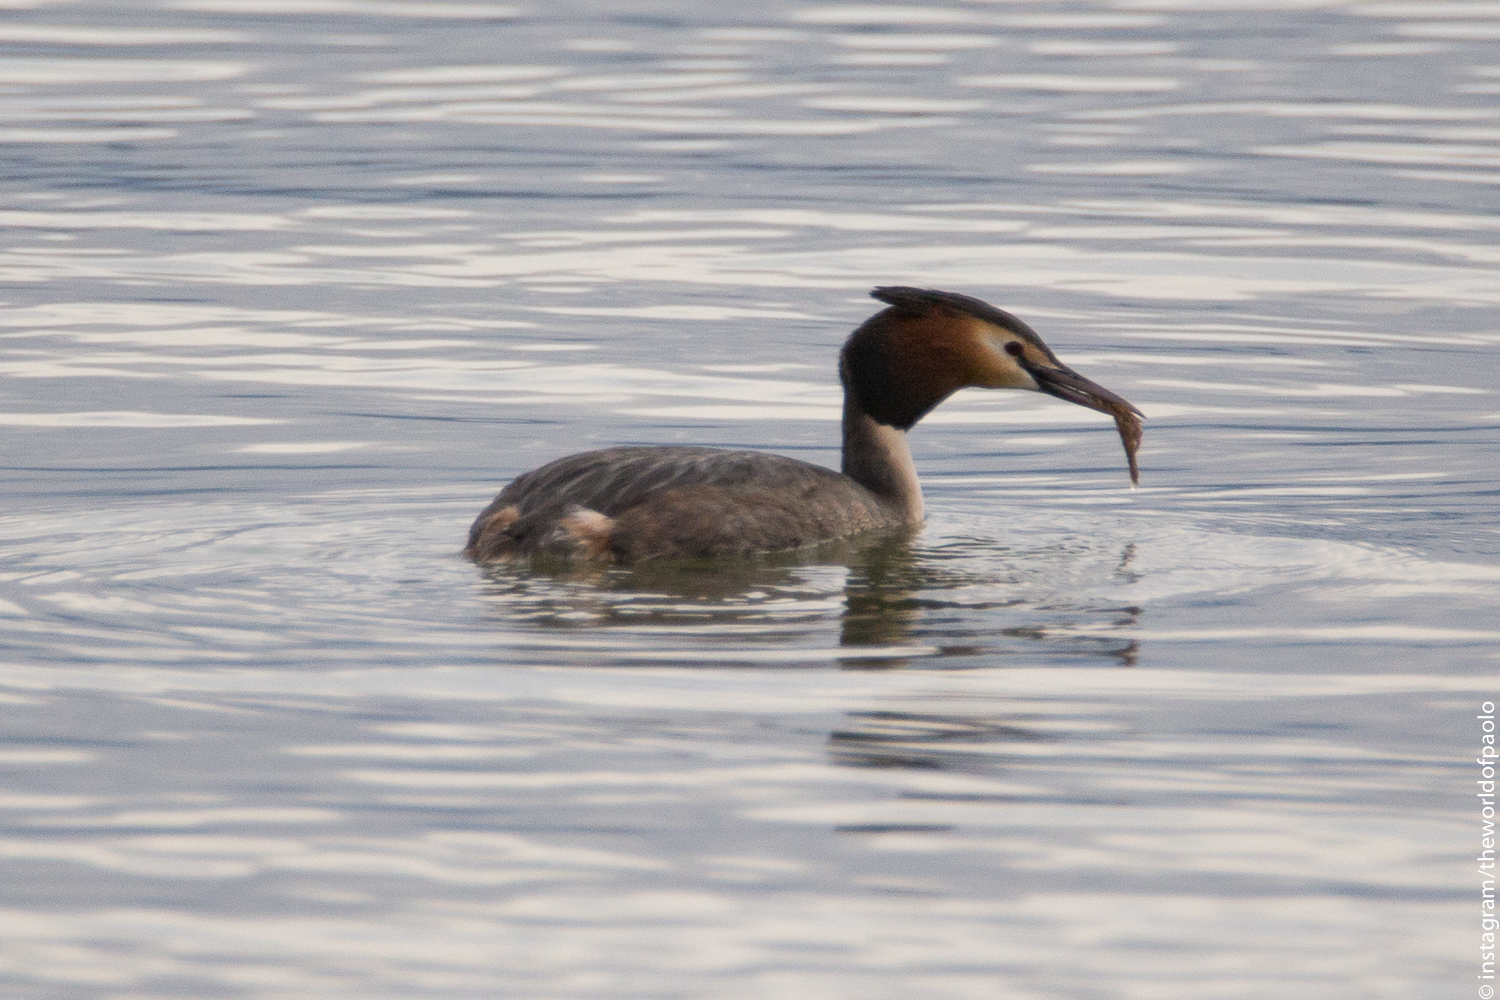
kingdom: Animalia
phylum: Chordata
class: Aves
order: Podicipediformes
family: Podicipedidae
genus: Podiceps
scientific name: Podiceps cristatus
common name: Great crested grebe
